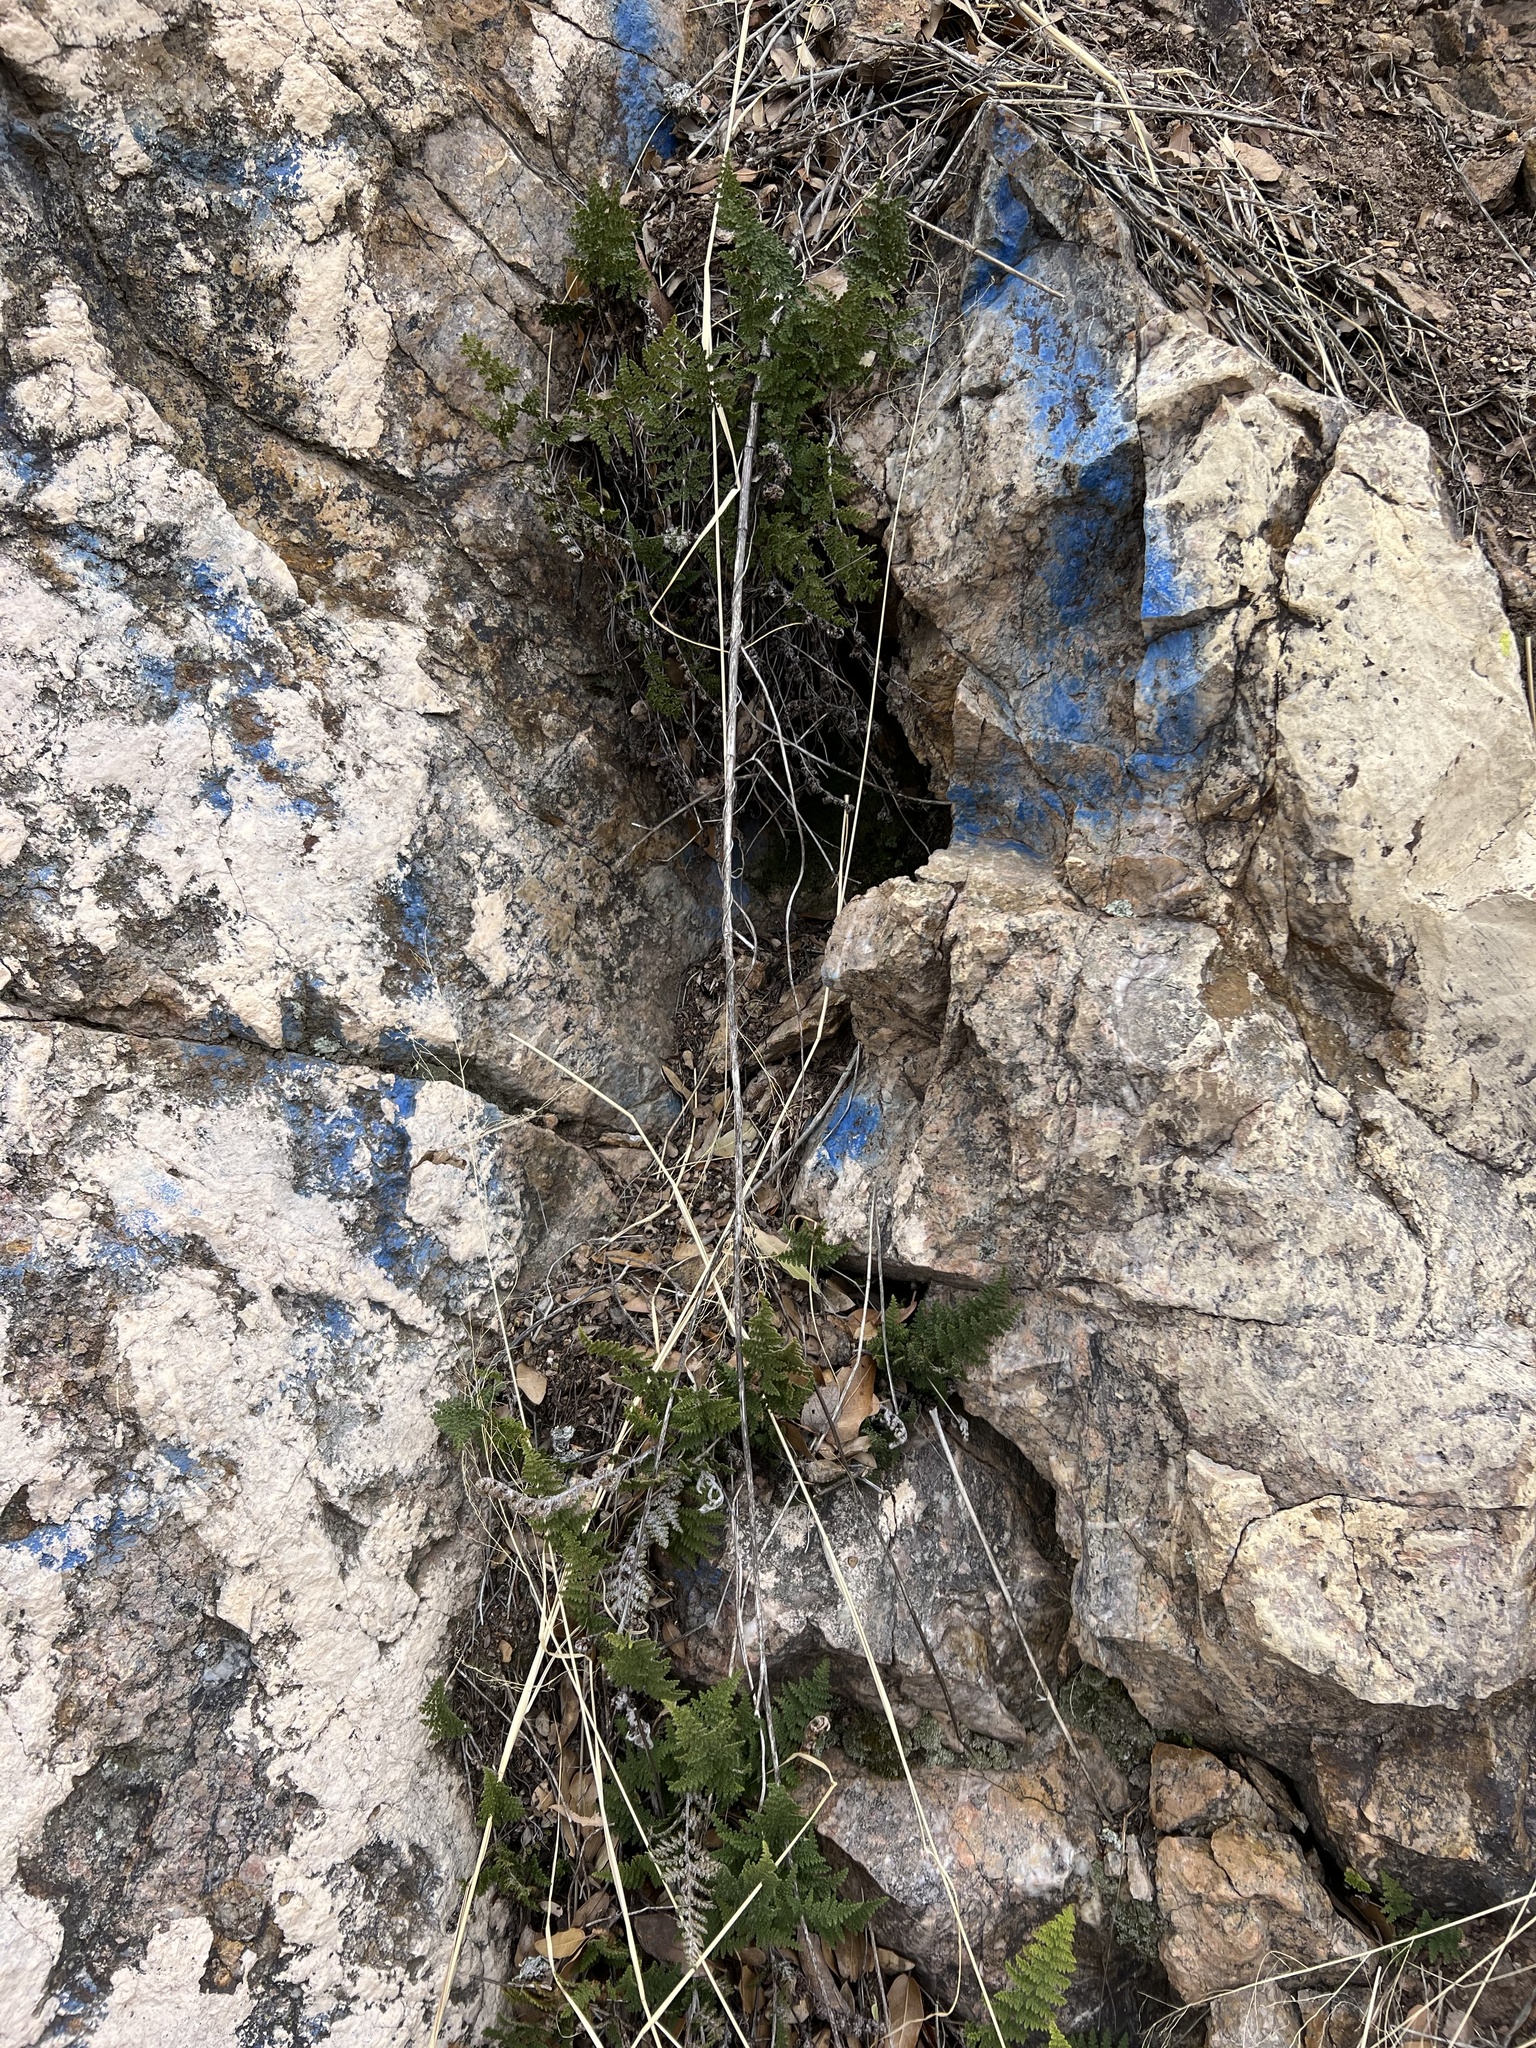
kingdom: Plantae
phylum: Tracheophyta
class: Polypodiopsida
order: Polypodiales
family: Pteridaceae
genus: Myriopteris
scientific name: Myriopteris fendleri
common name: Fendler's lip fern
